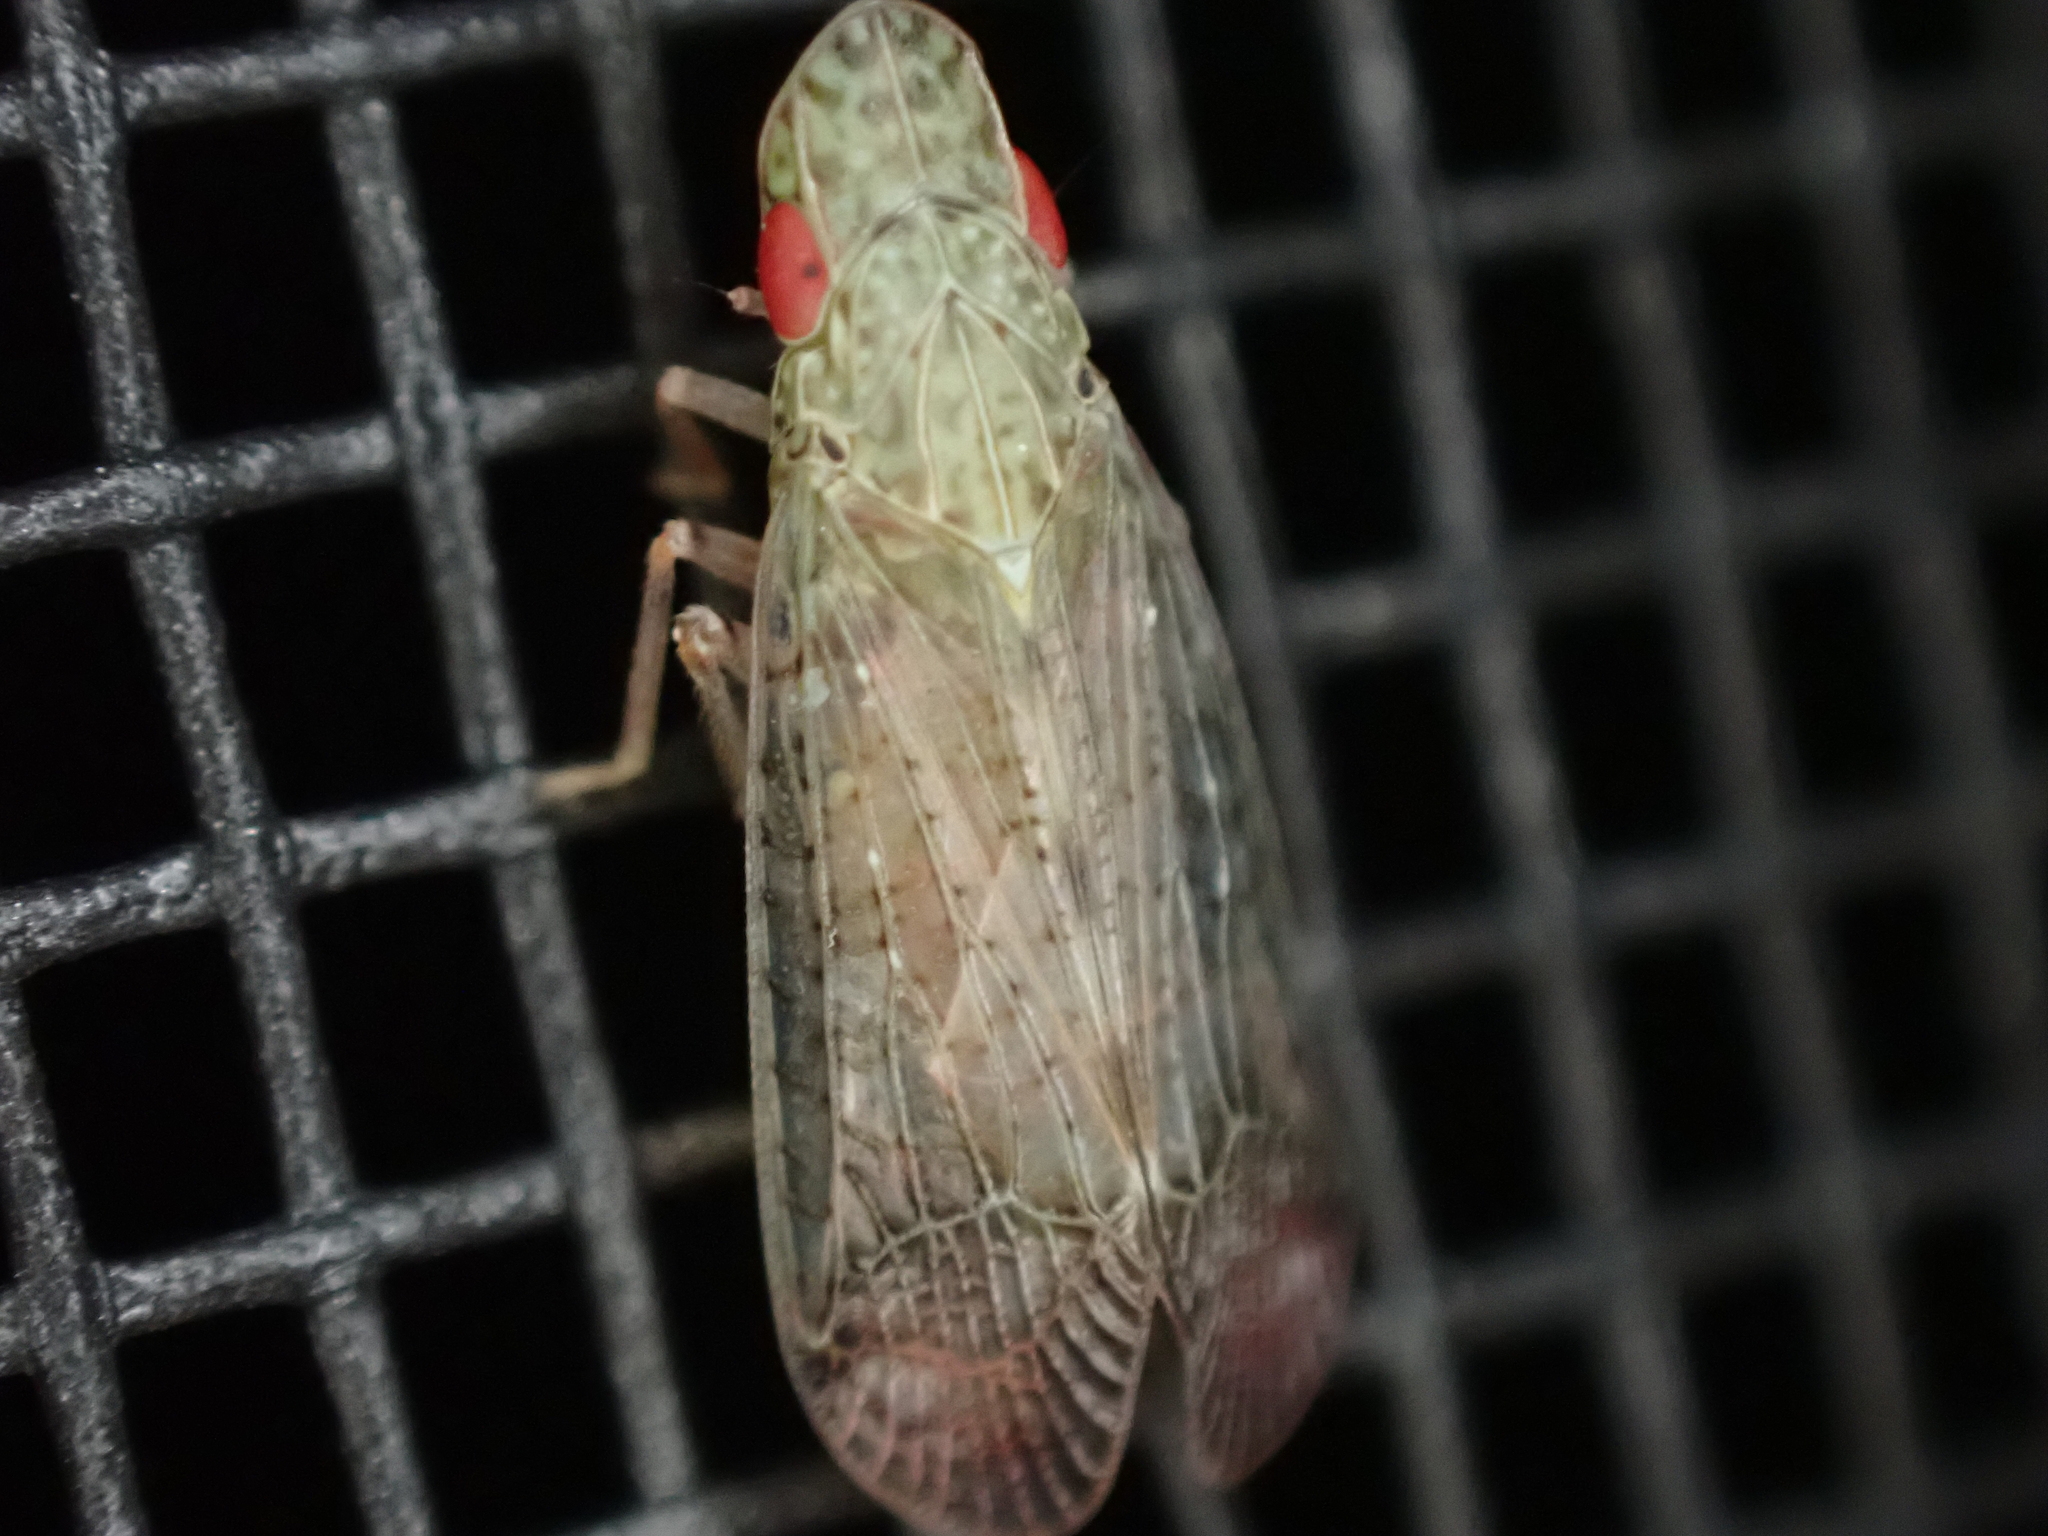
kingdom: Animalia
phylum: Arthropoda
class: Insecta
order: Hemiptera
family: Tropiduchidae
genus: Pelitropis
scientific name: Pelitropis rotulata
